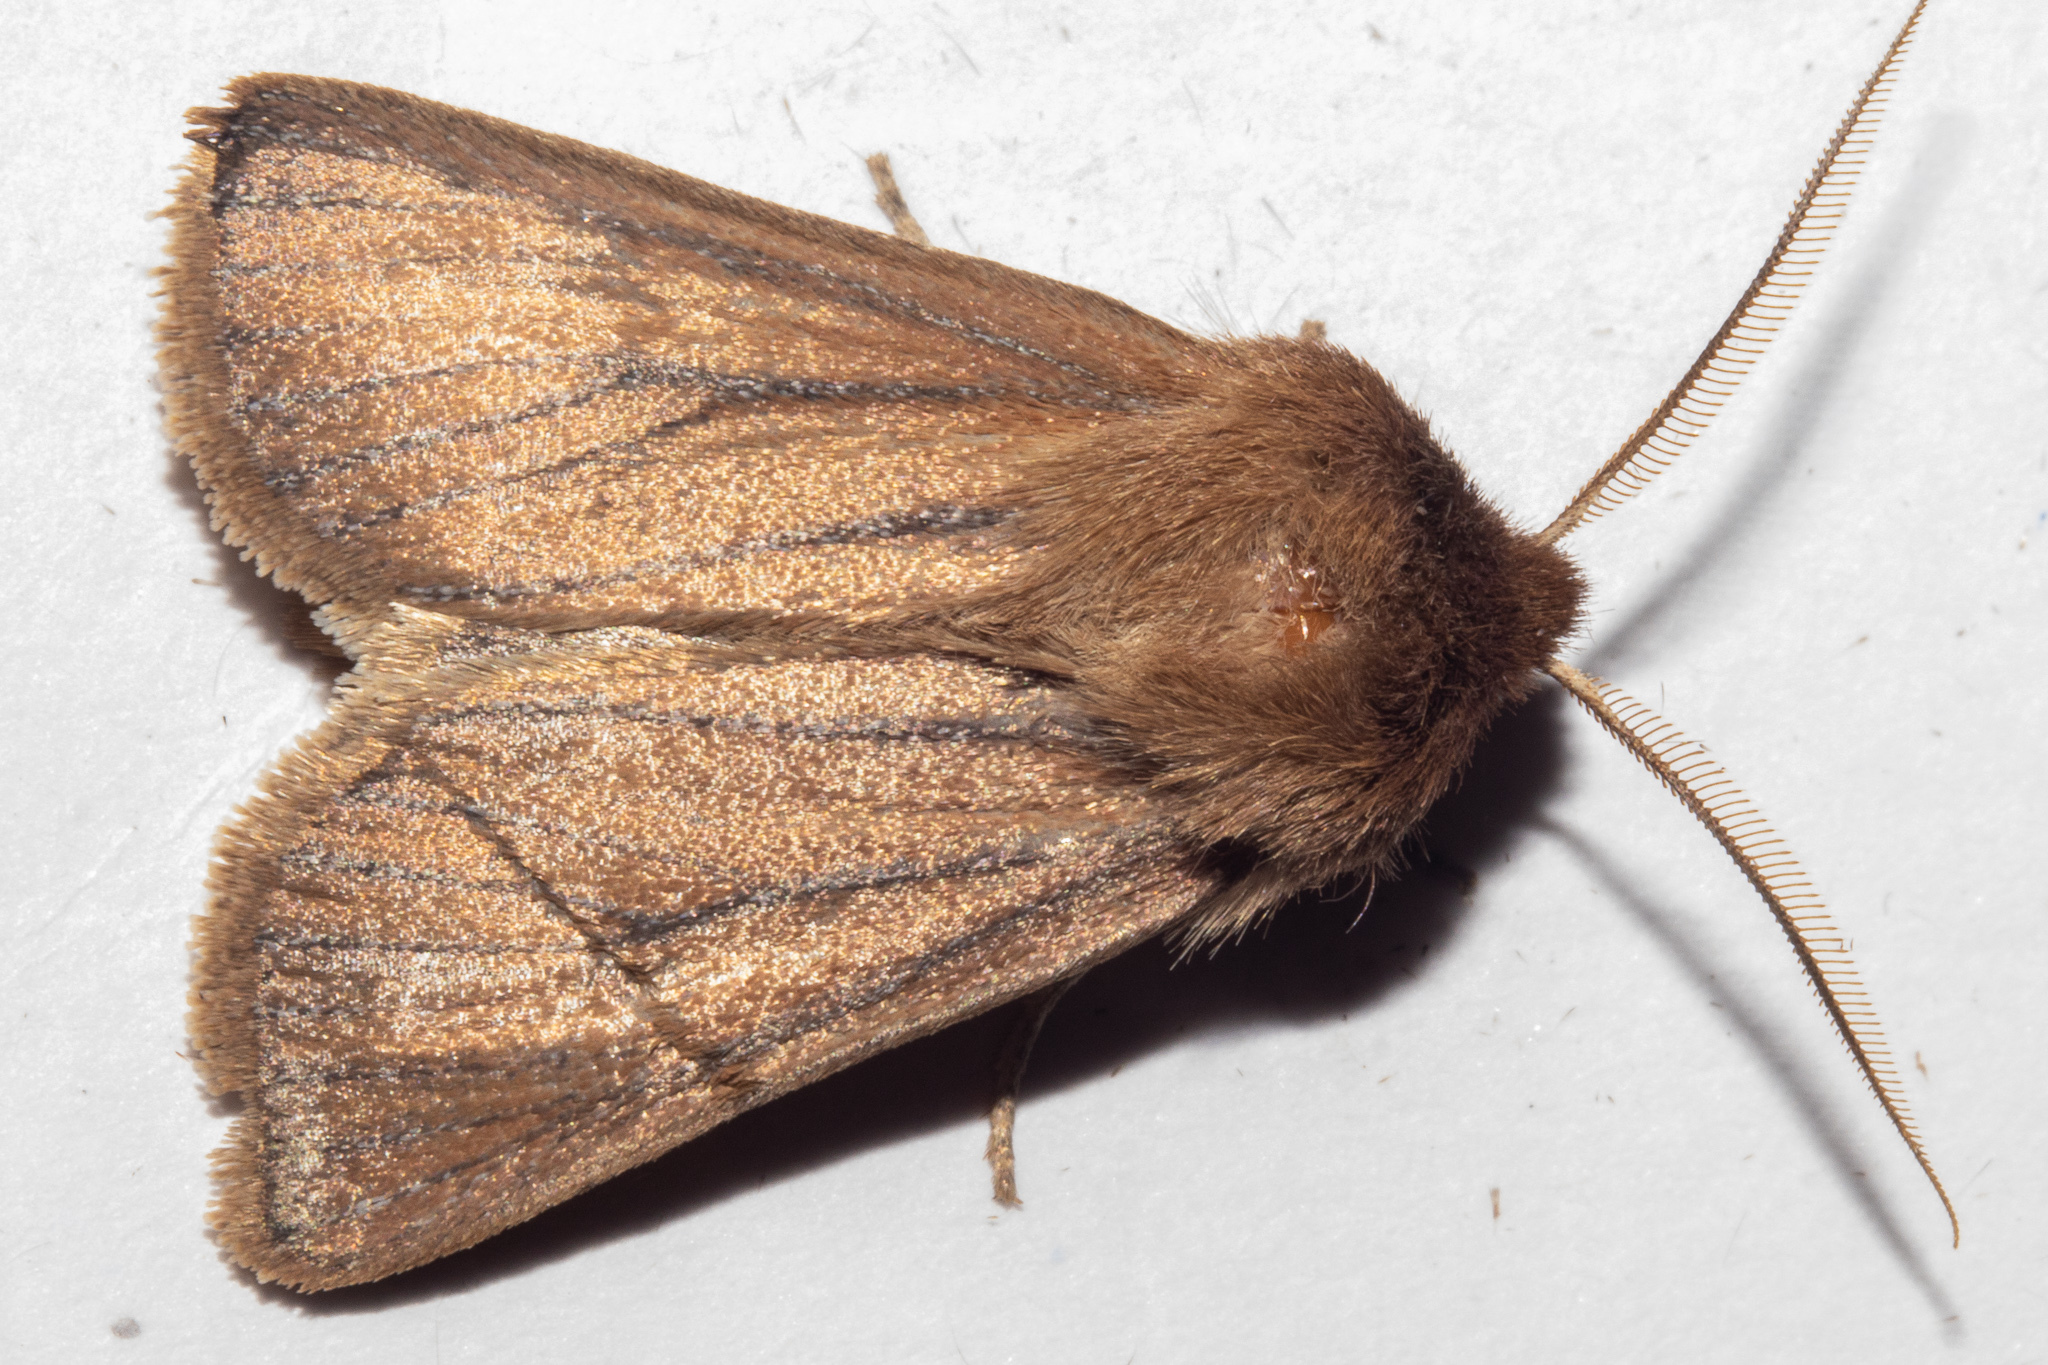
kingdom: Animalia
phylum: Arthropoda
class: Insecta
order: Lepidoptera
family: Noctuidae
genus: Ichneutica
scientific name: Ichneutica
